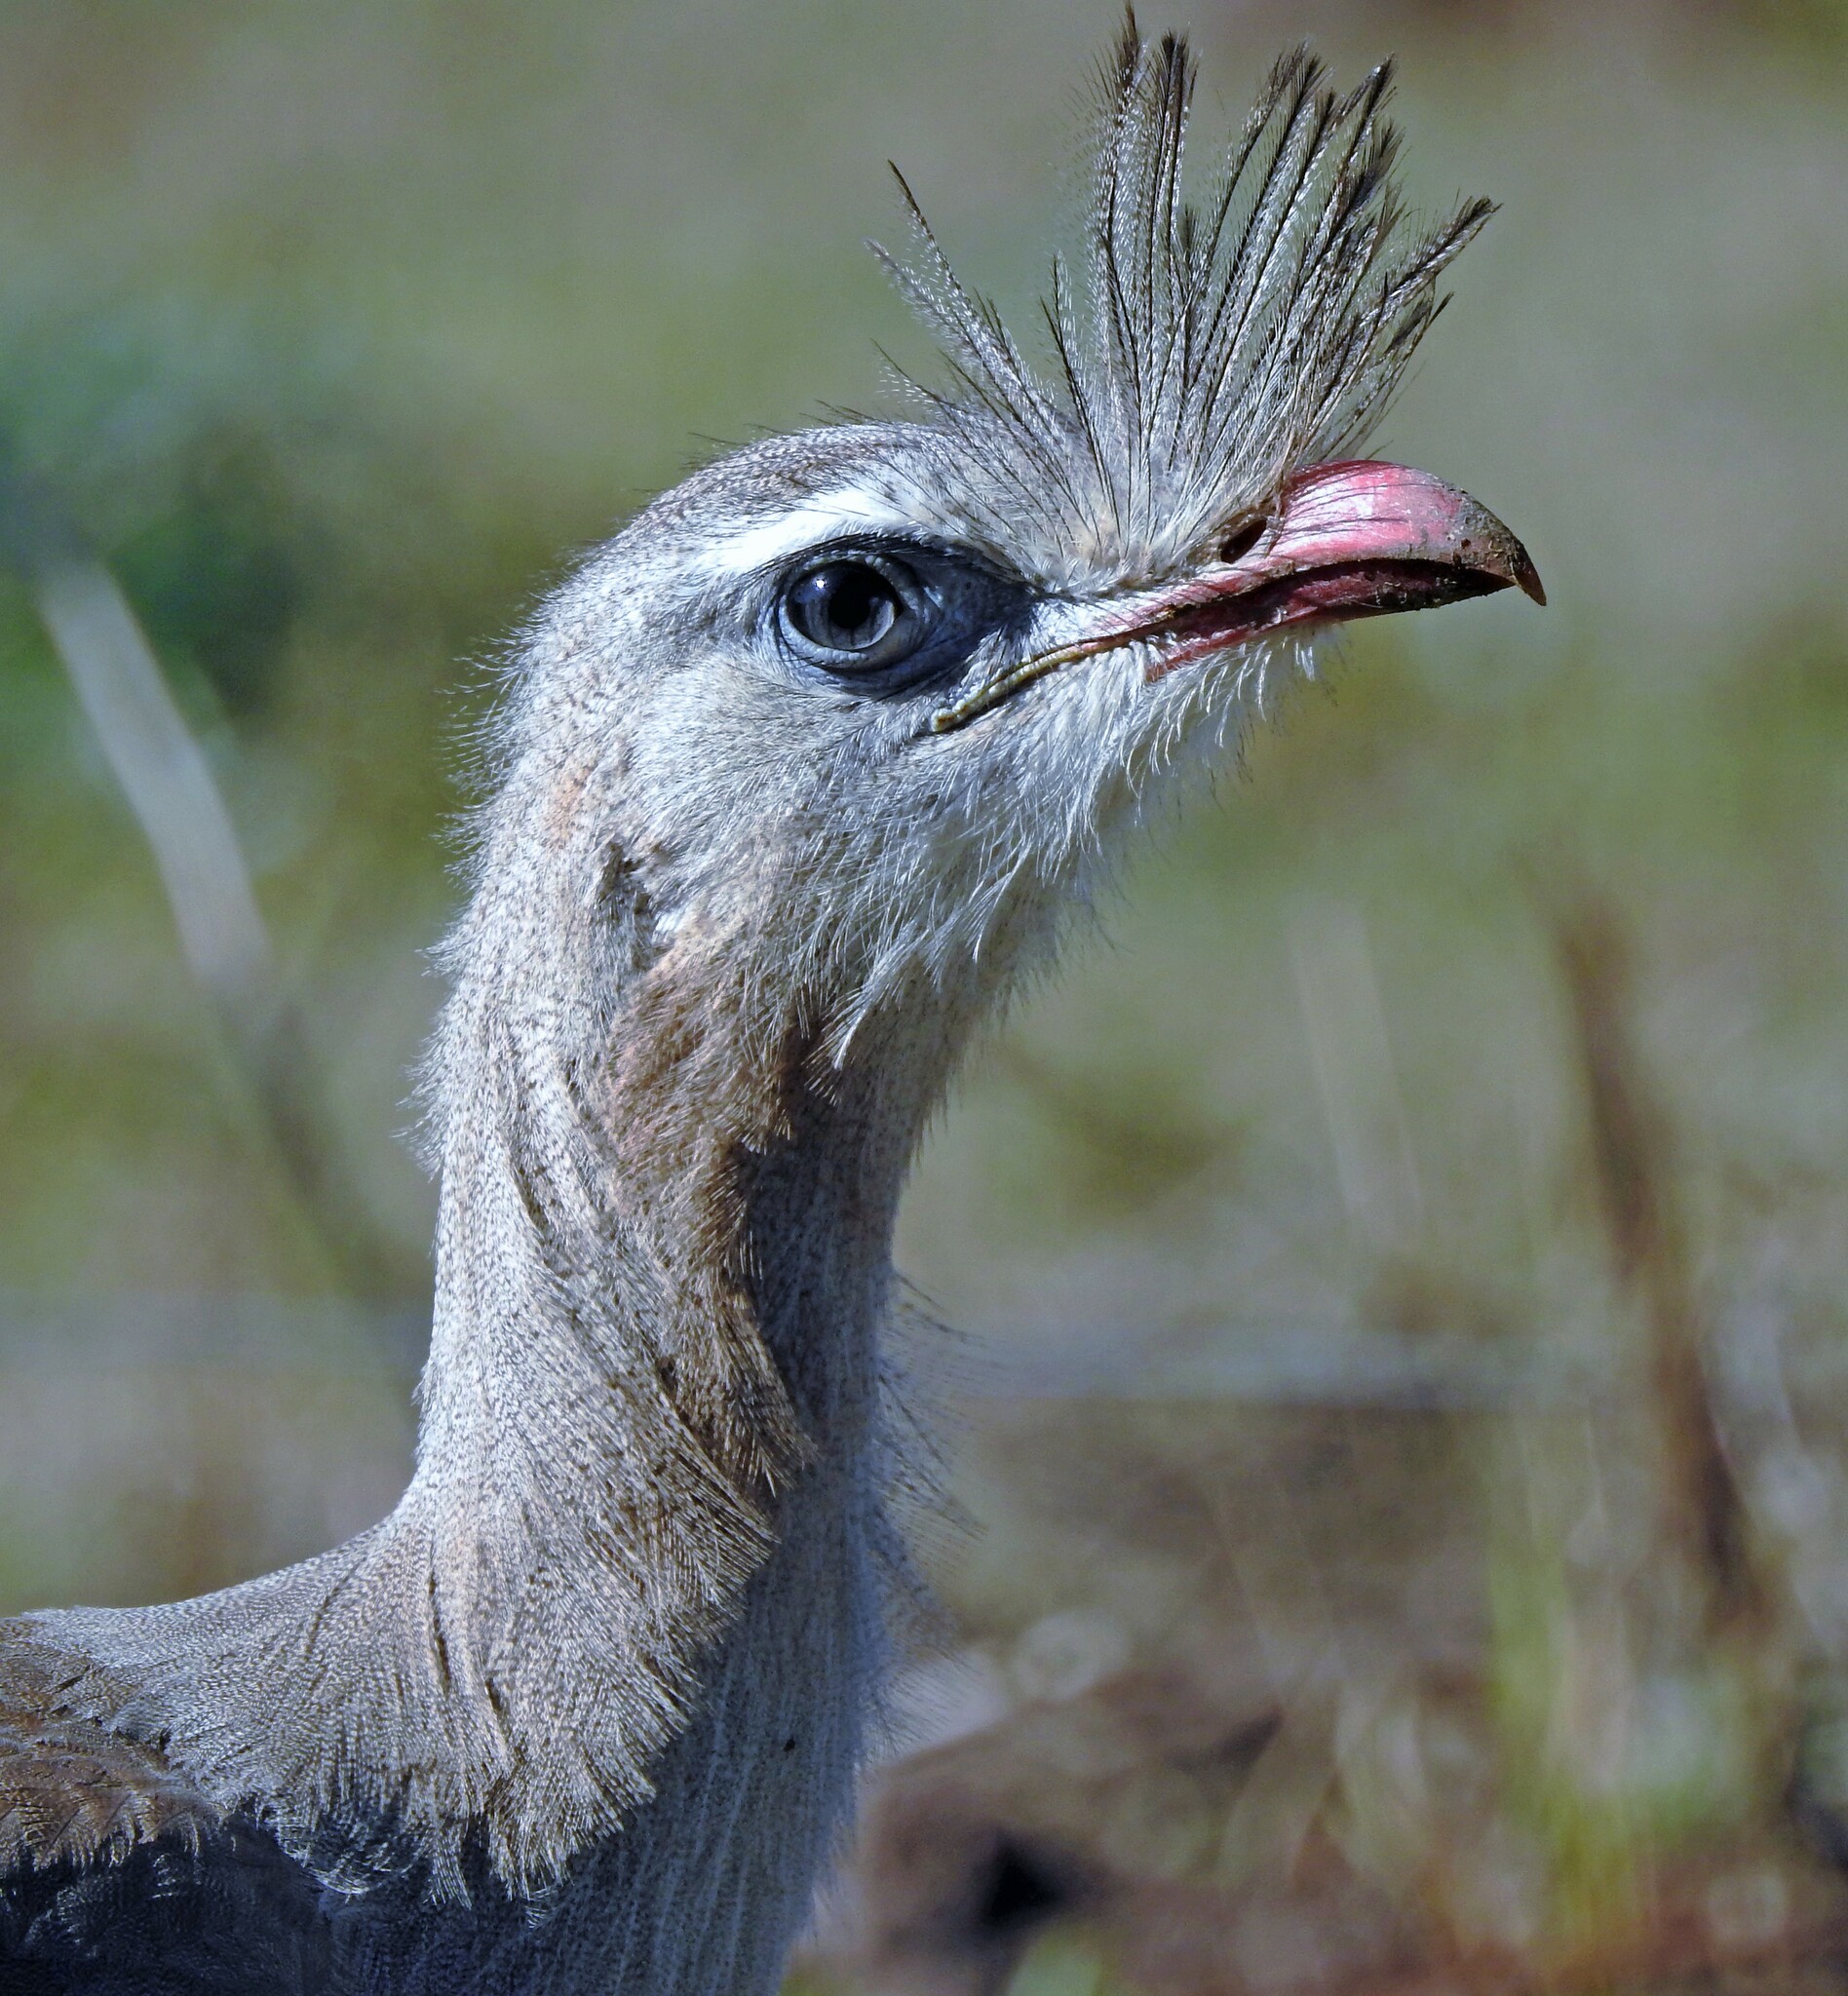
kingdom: Animalia
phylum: Chordata
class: Aves
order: Cariamiformes
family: Cariamidae
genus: Cariama
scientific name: Cariama cristata
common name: Red-legged seriema
